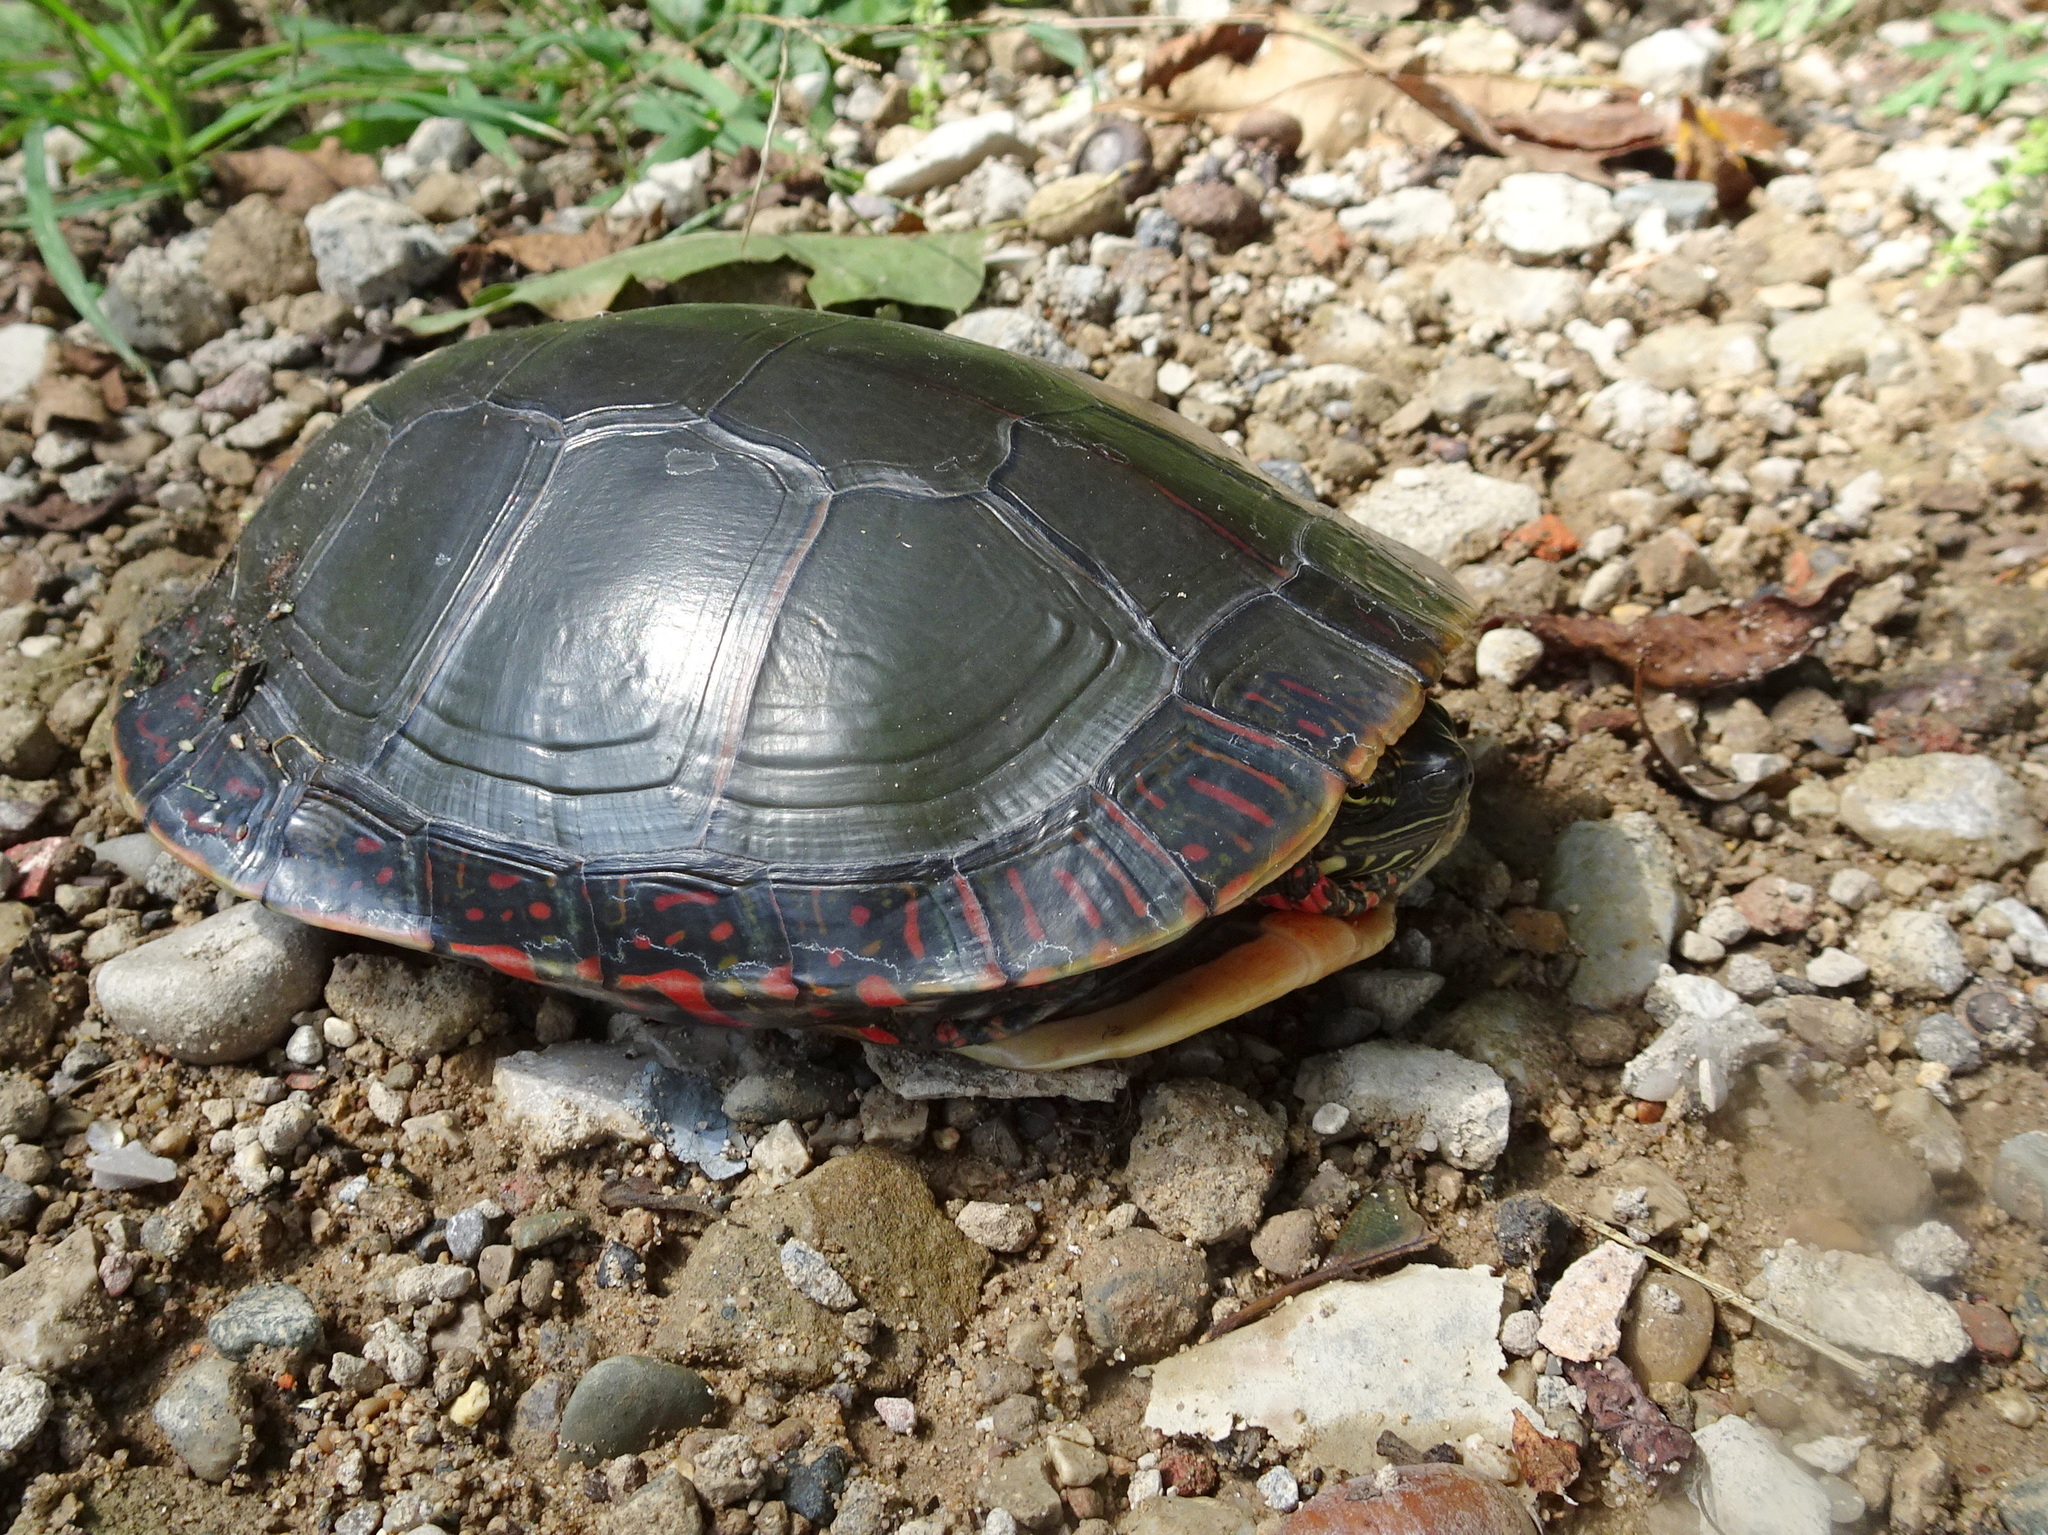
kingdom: Animalia
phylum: Chordata
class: Testudines
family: Emydidae
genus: Chrysemys
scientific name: Chrysemys picta
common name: Painted turtle
